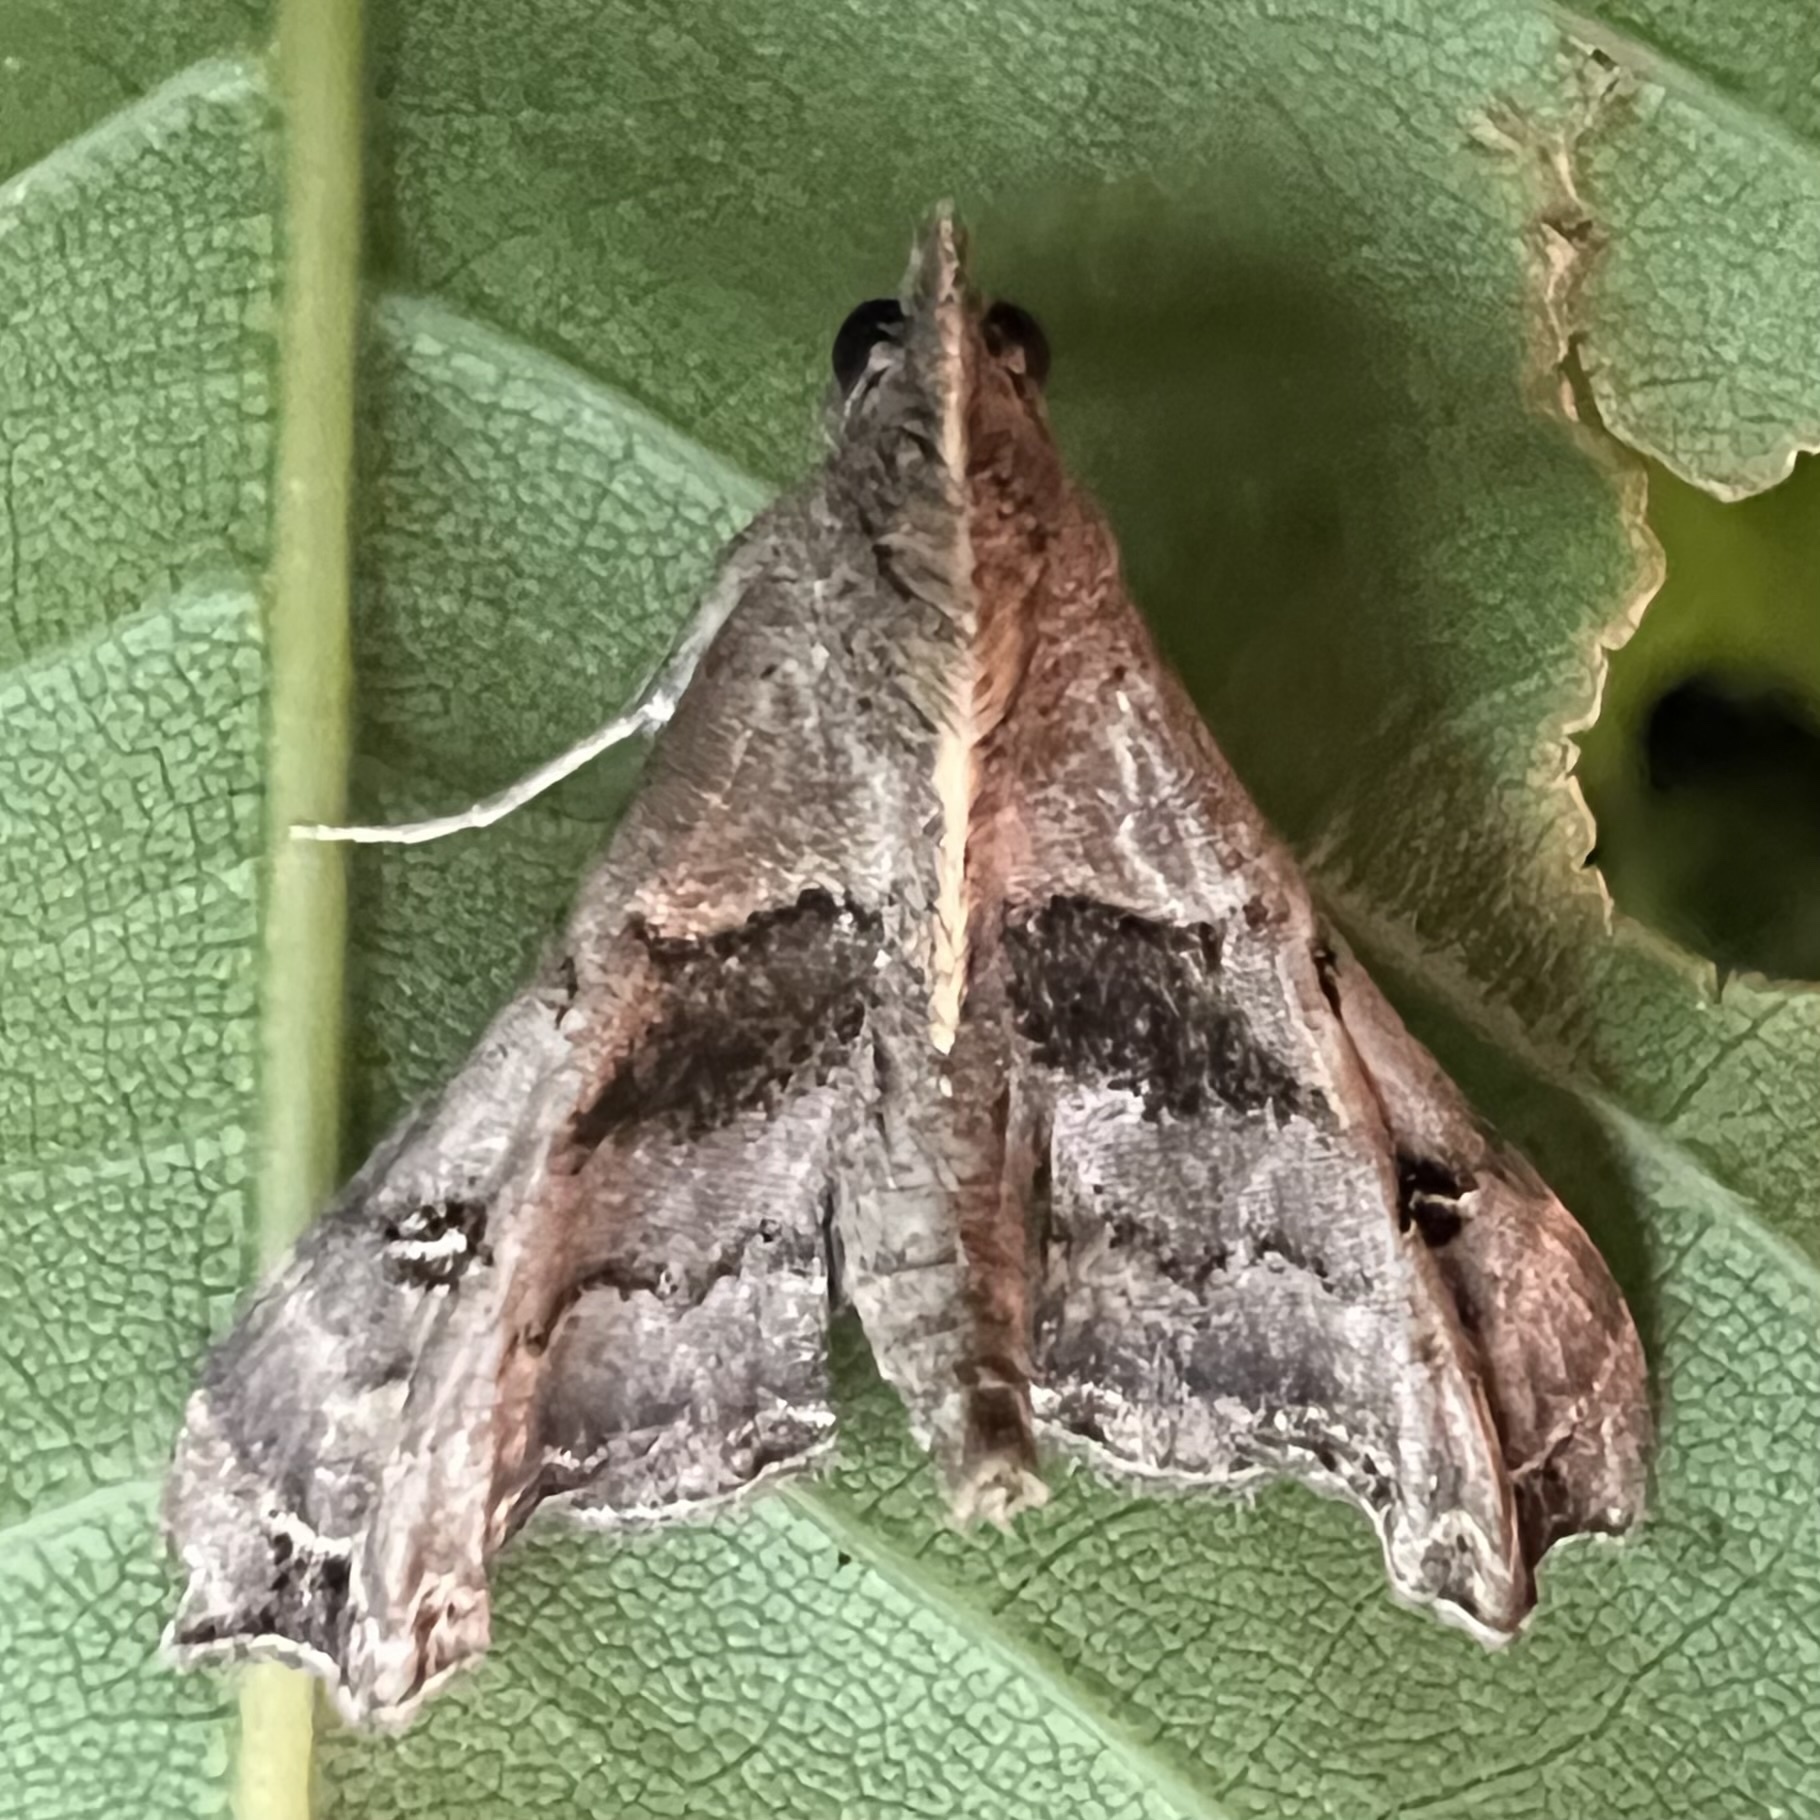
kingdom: Animalia
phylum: Arthropoda
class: Insecta
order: Lepidoptera
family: Erebidae
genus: Palthis
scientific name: Palthis asopialis
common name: Faint-spotted palthis moth
